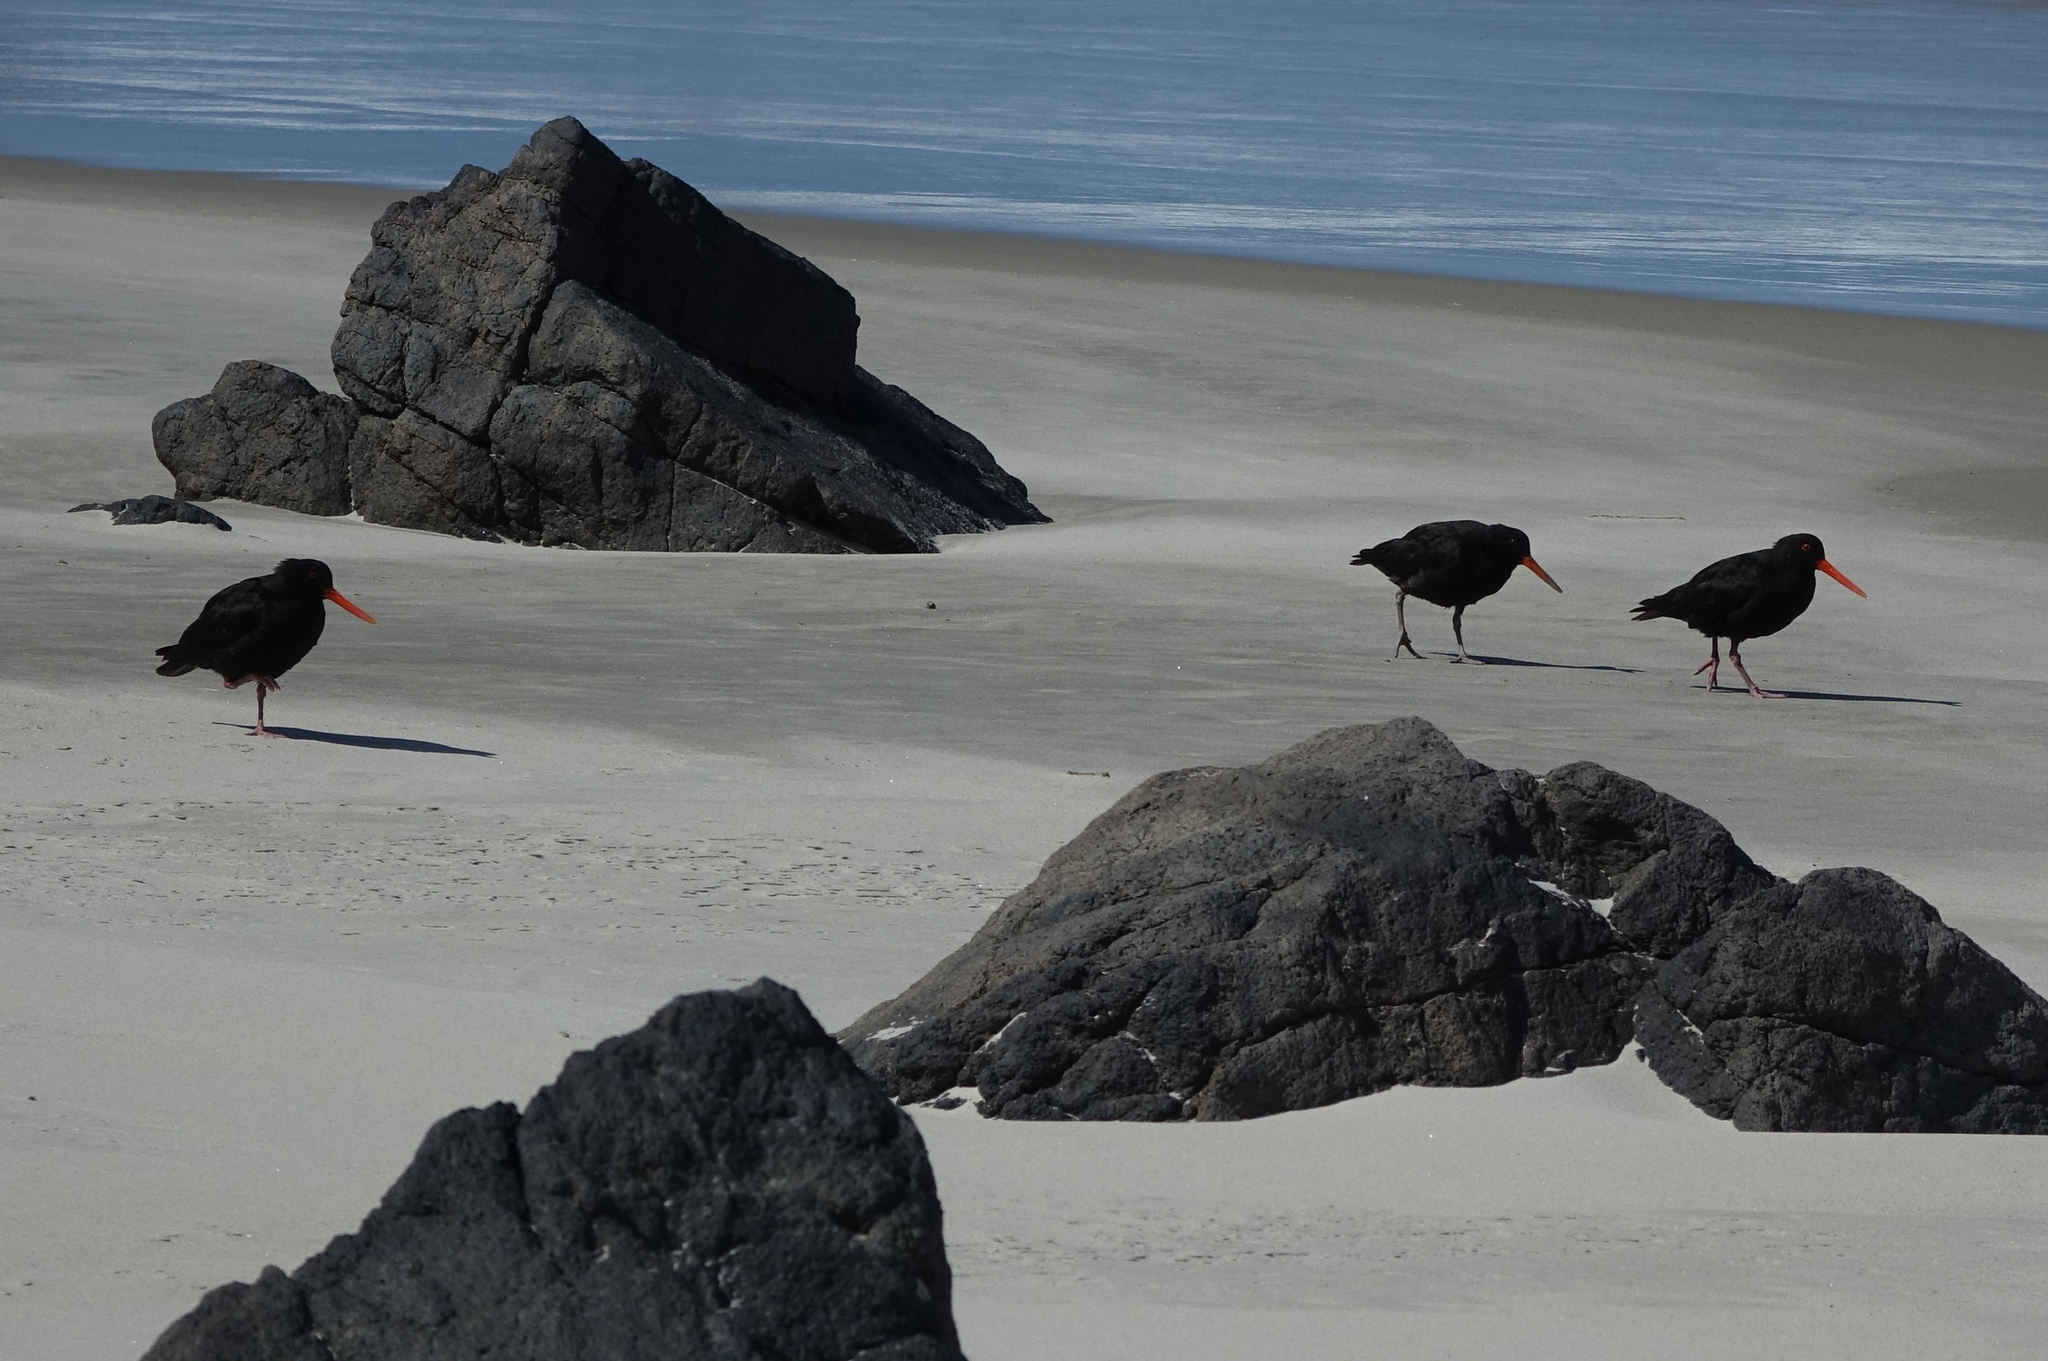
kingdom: Animalia
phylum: Chordata
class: Aves
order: Charadriiformes
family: Haematopodidae
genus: Haematopus
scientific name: Haematopus unicolor
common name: Variable oystercatcher
